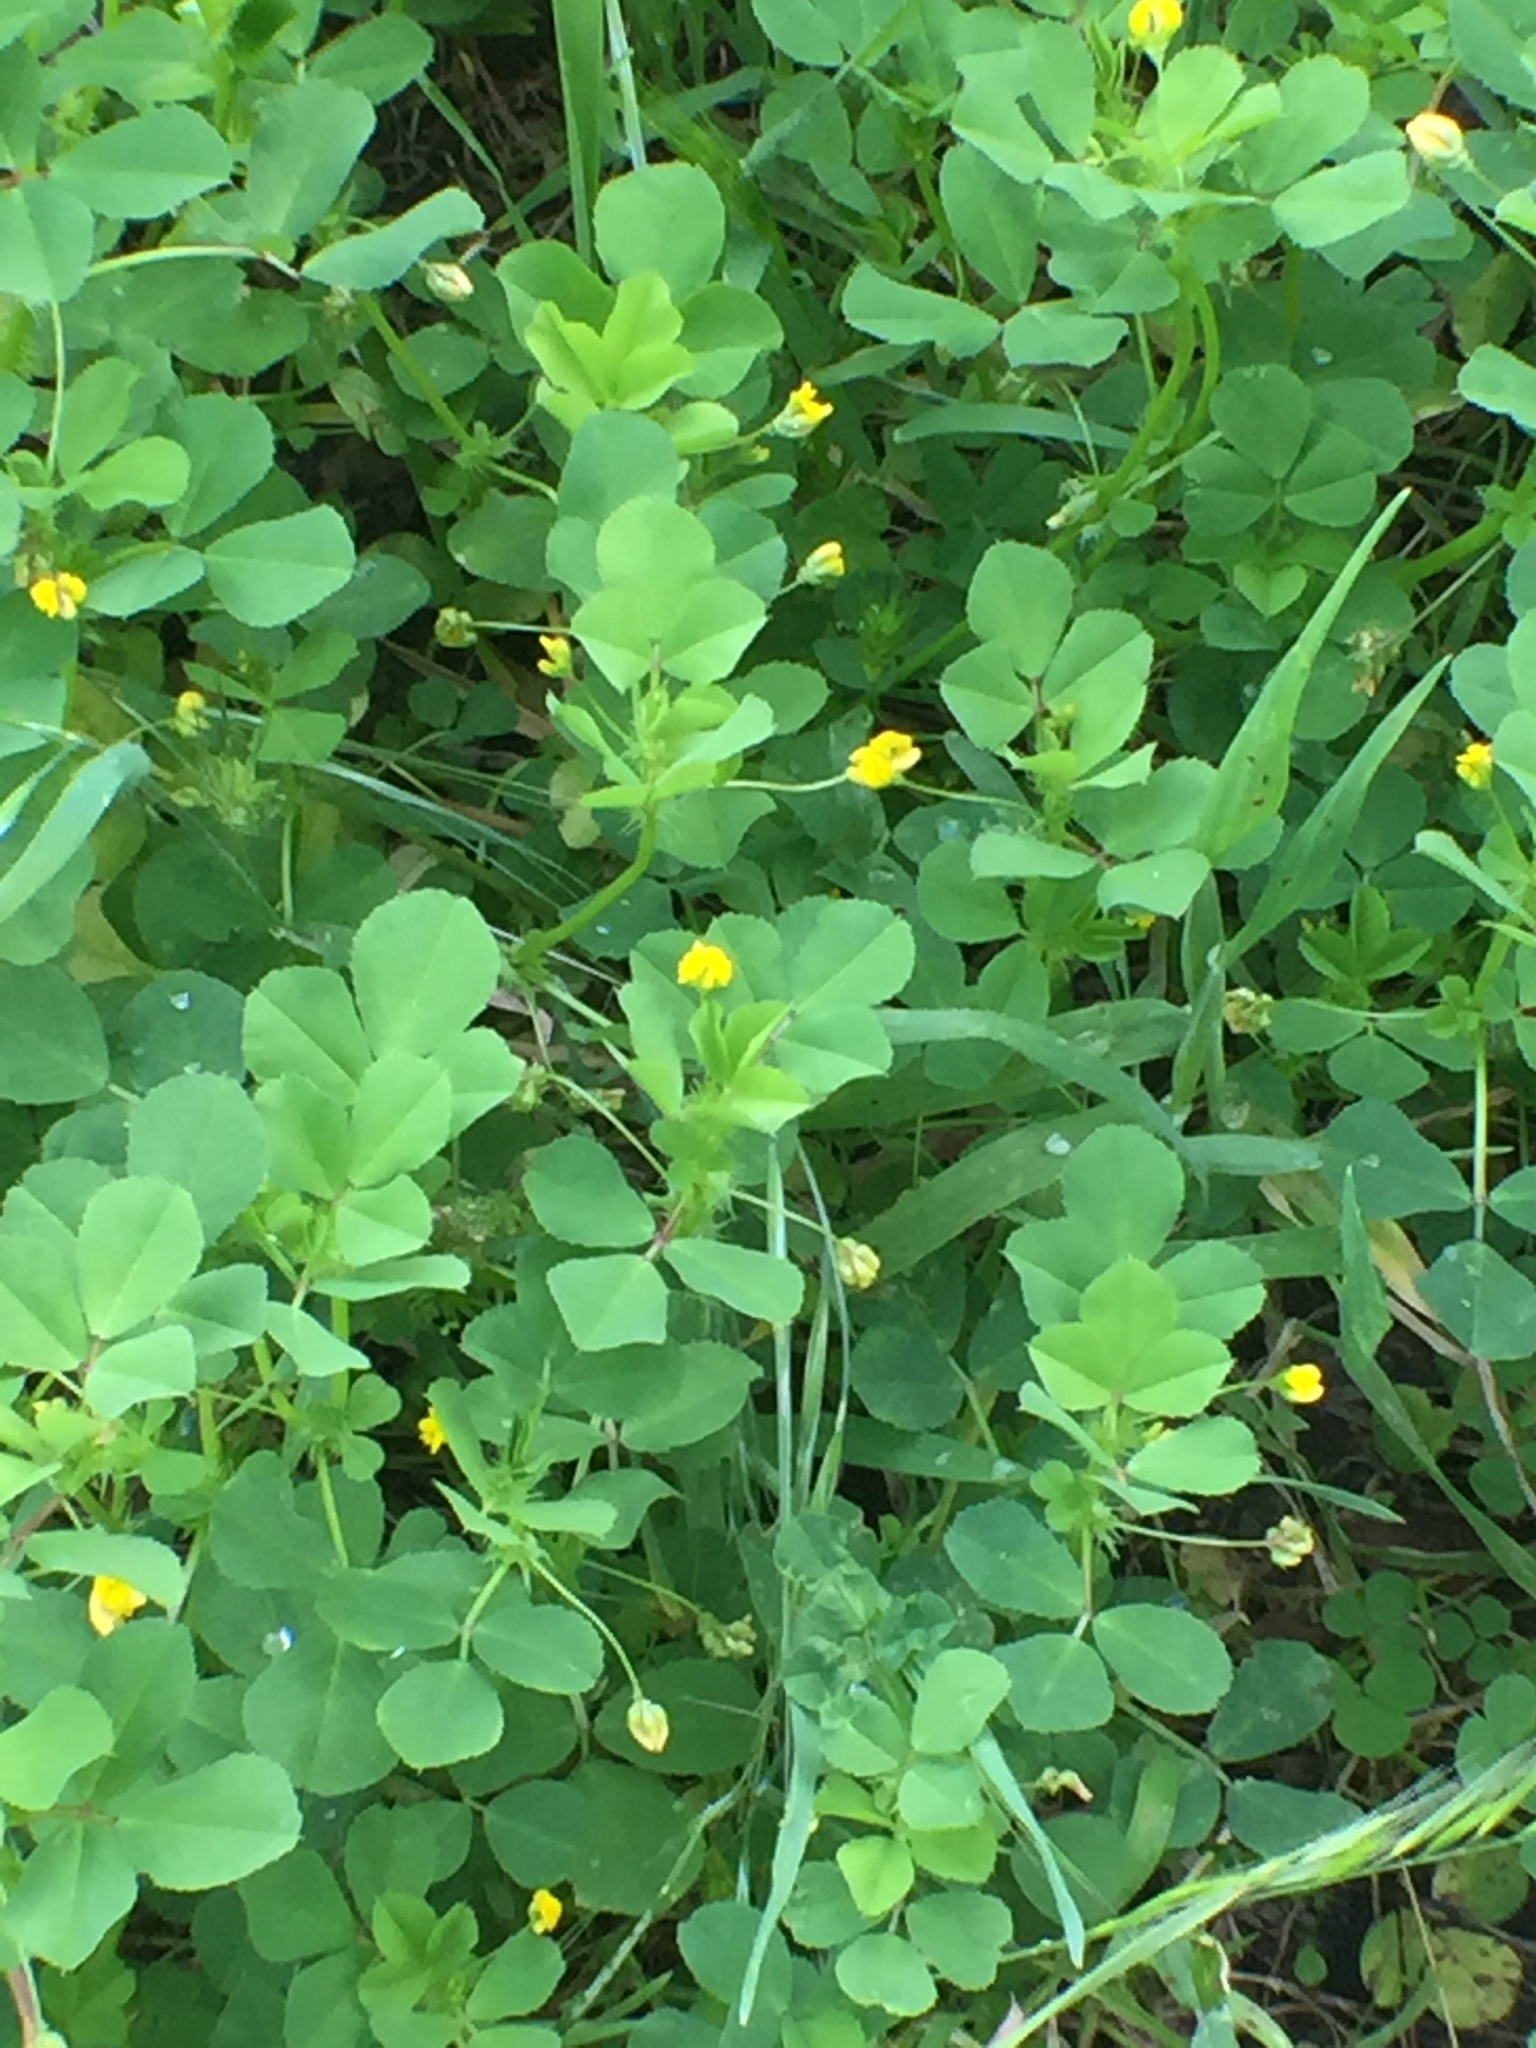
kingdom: Plantae
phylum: Tracheophyta
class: Magnoliopsida
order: Fabales
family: Fabaceae
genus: Medicago
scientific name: Medicago polymorpha
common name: Burclover
